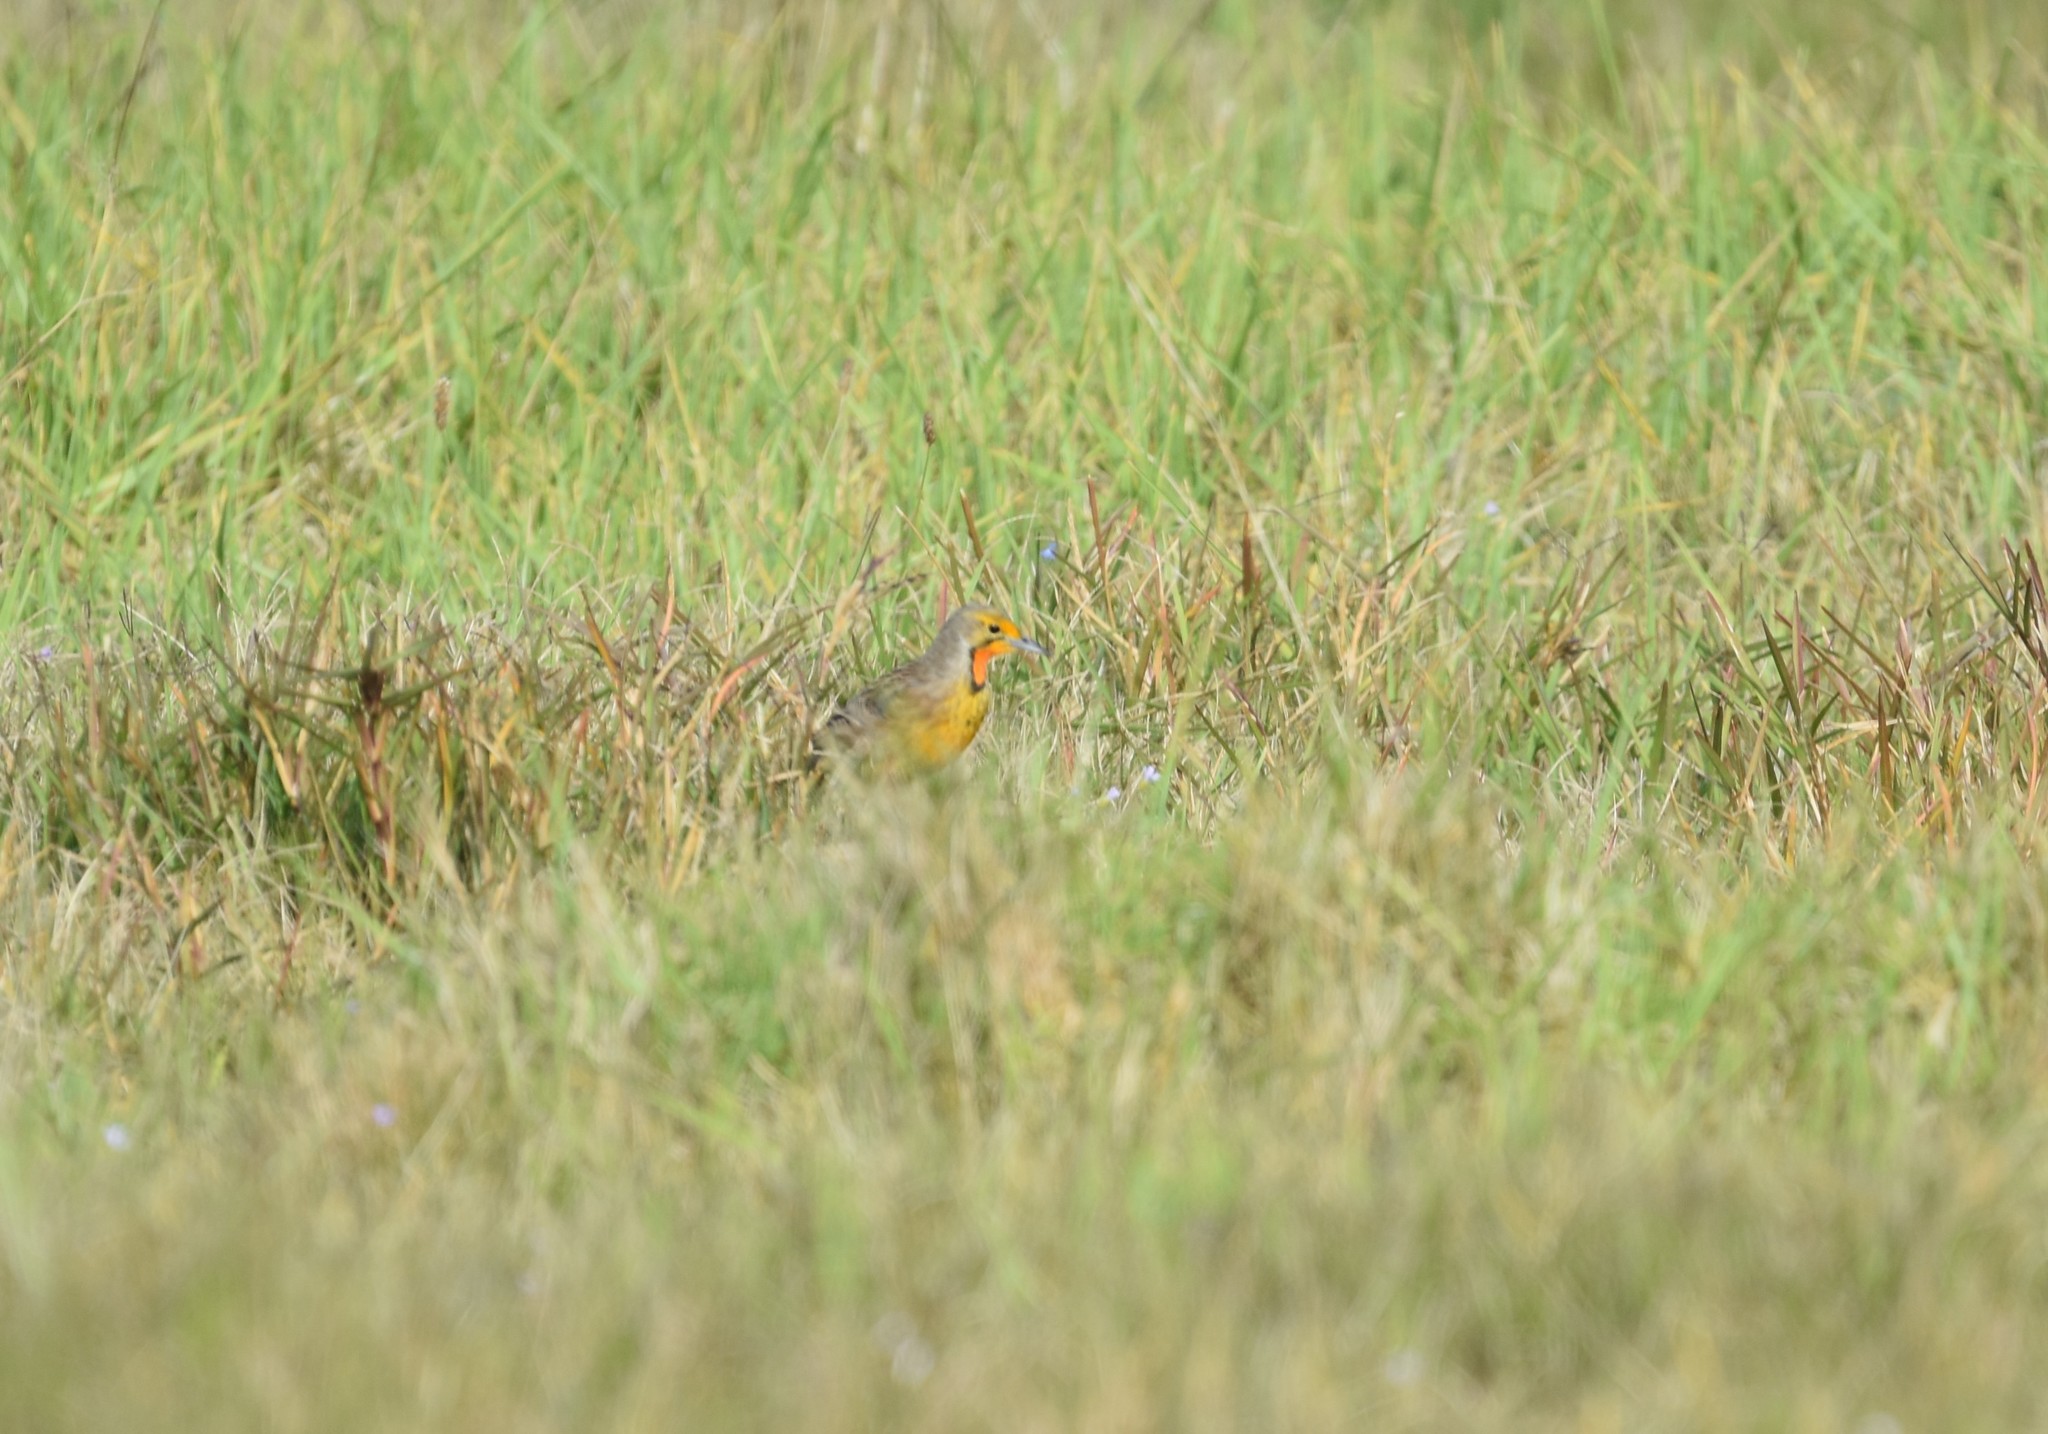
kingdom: Animalia
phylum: Chordata
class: Aves
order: Passeriformes
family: Motacillidae
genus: Macronyx
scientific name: Macronyx capensis
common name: Cape longclaw
